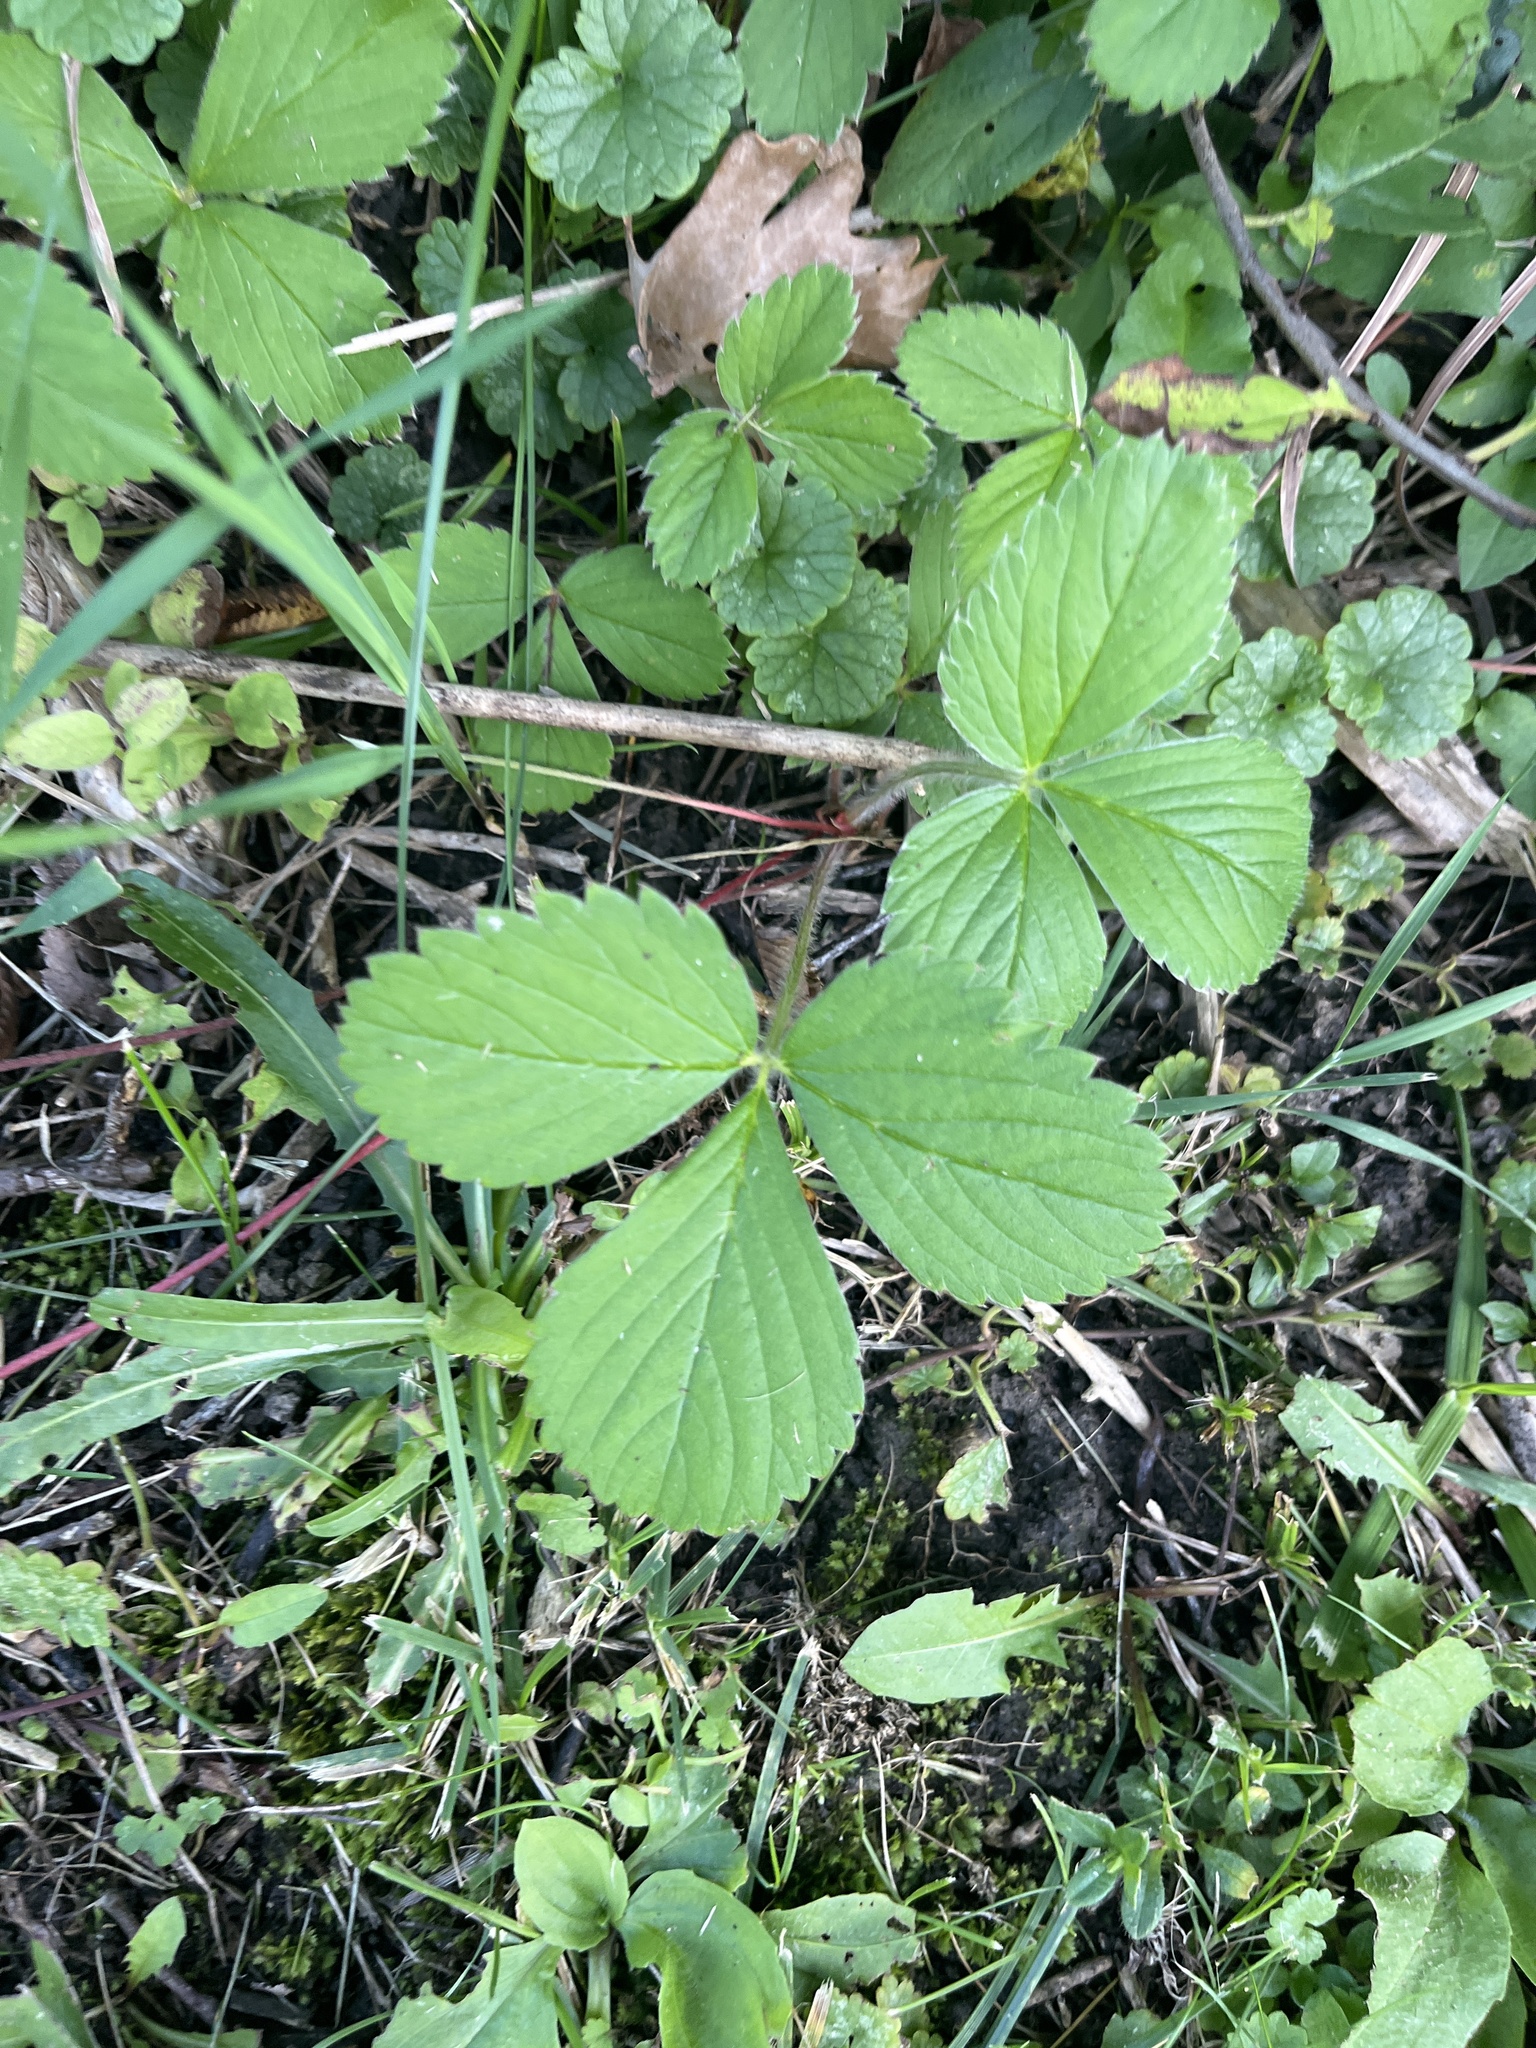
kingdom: Plantae
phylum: Tracheophyta
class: Magnoliopsida
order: Rosales
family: Rosaceae
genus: Fragaria
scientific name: Fragaria virginiana
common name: Thickleaved wild strawberry
